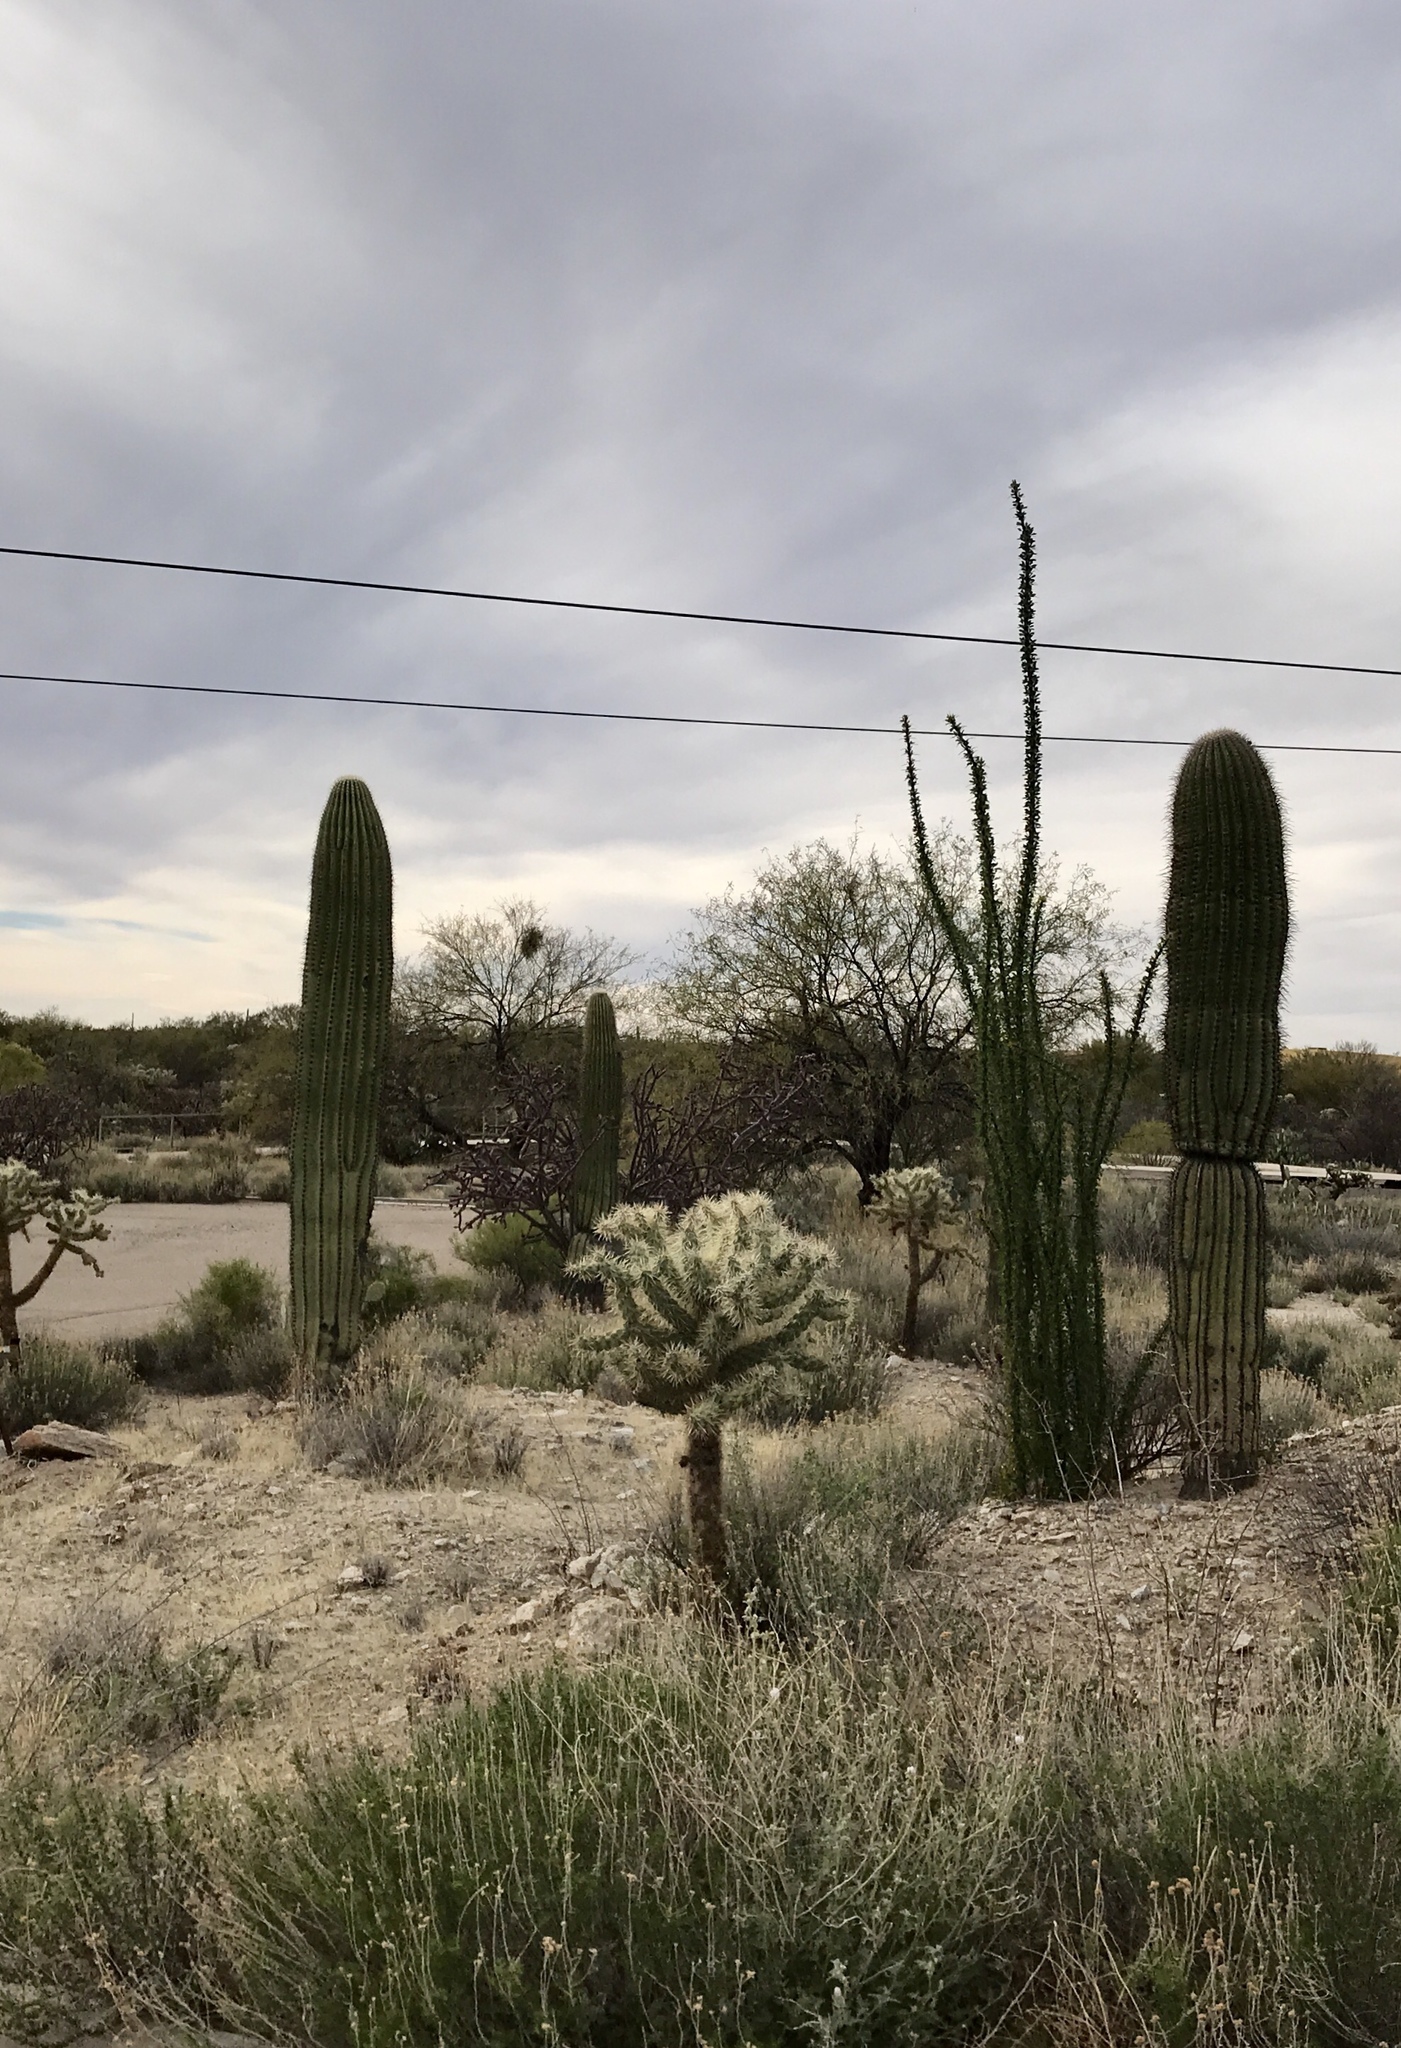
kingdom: Plantae
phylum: Tracheophyta
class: Magnoliopsida
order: Caryophyllales
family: Cactaceae
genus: Carnegiea
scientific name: Carnegiea gigantea
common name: Saguaro
